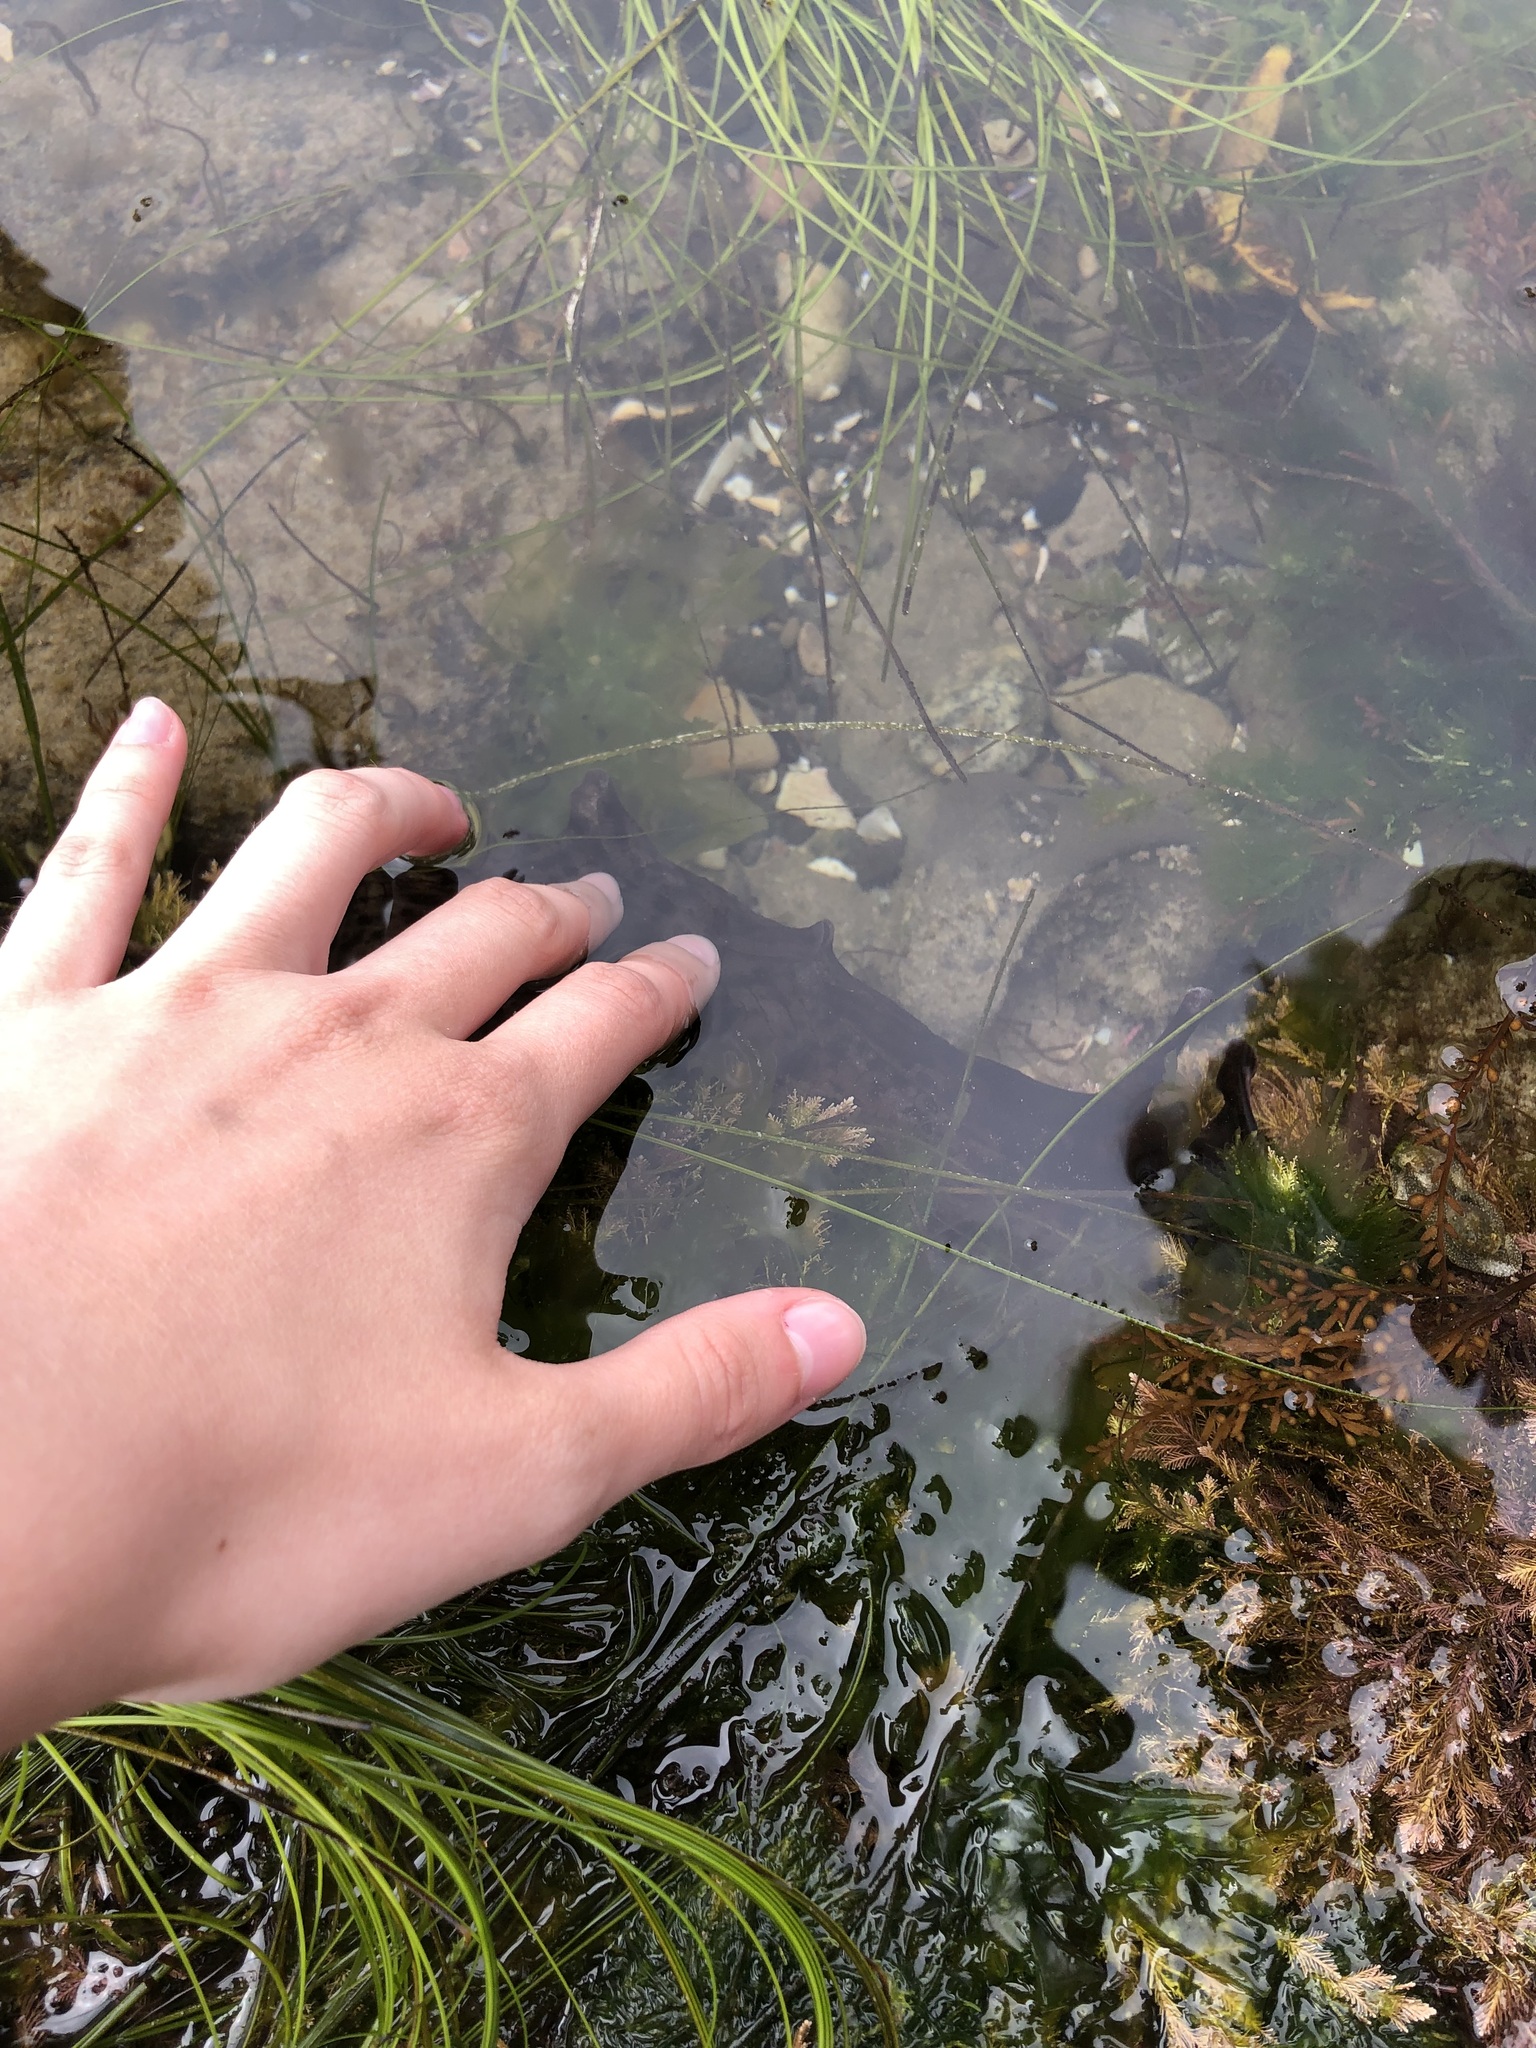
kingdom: Animalia
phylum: Mollusca
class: Gastropoda
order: Aplysiida
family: Aplysiidae
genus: Aplysia
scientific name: Aplysia californica
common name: California seahare
